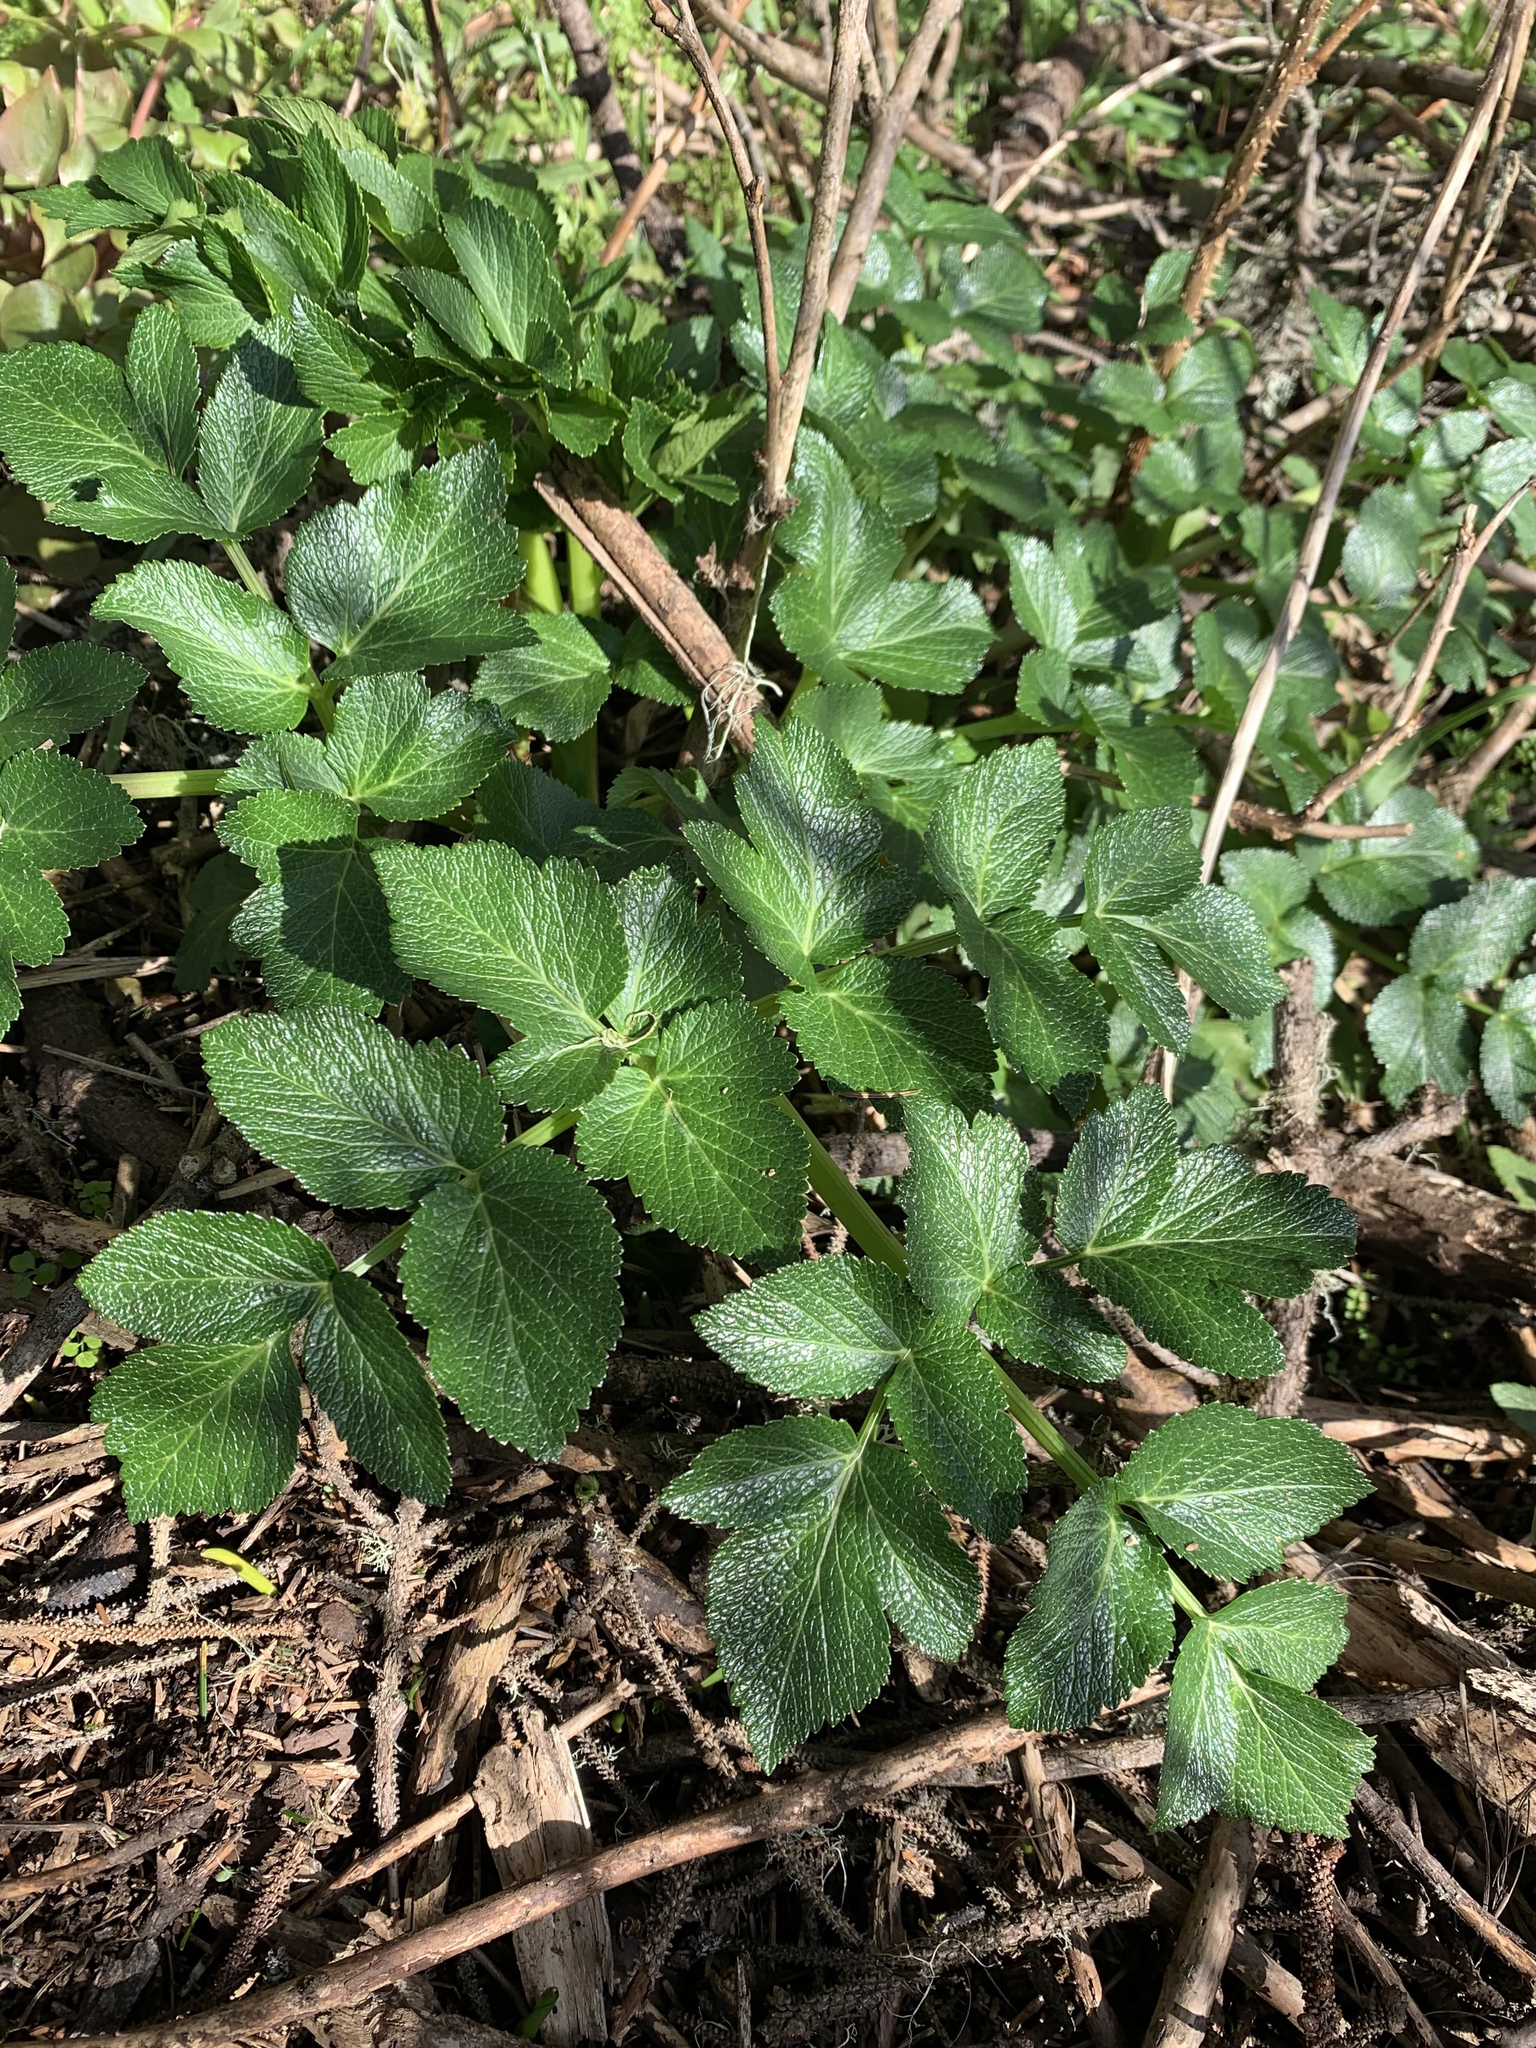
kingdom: Plantae
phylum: Tracheophyta
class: Magnoliopsida
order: Apiales
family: Apiaceae
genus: Angelica
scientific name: Angelica lucida
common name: Seabeach angelica
